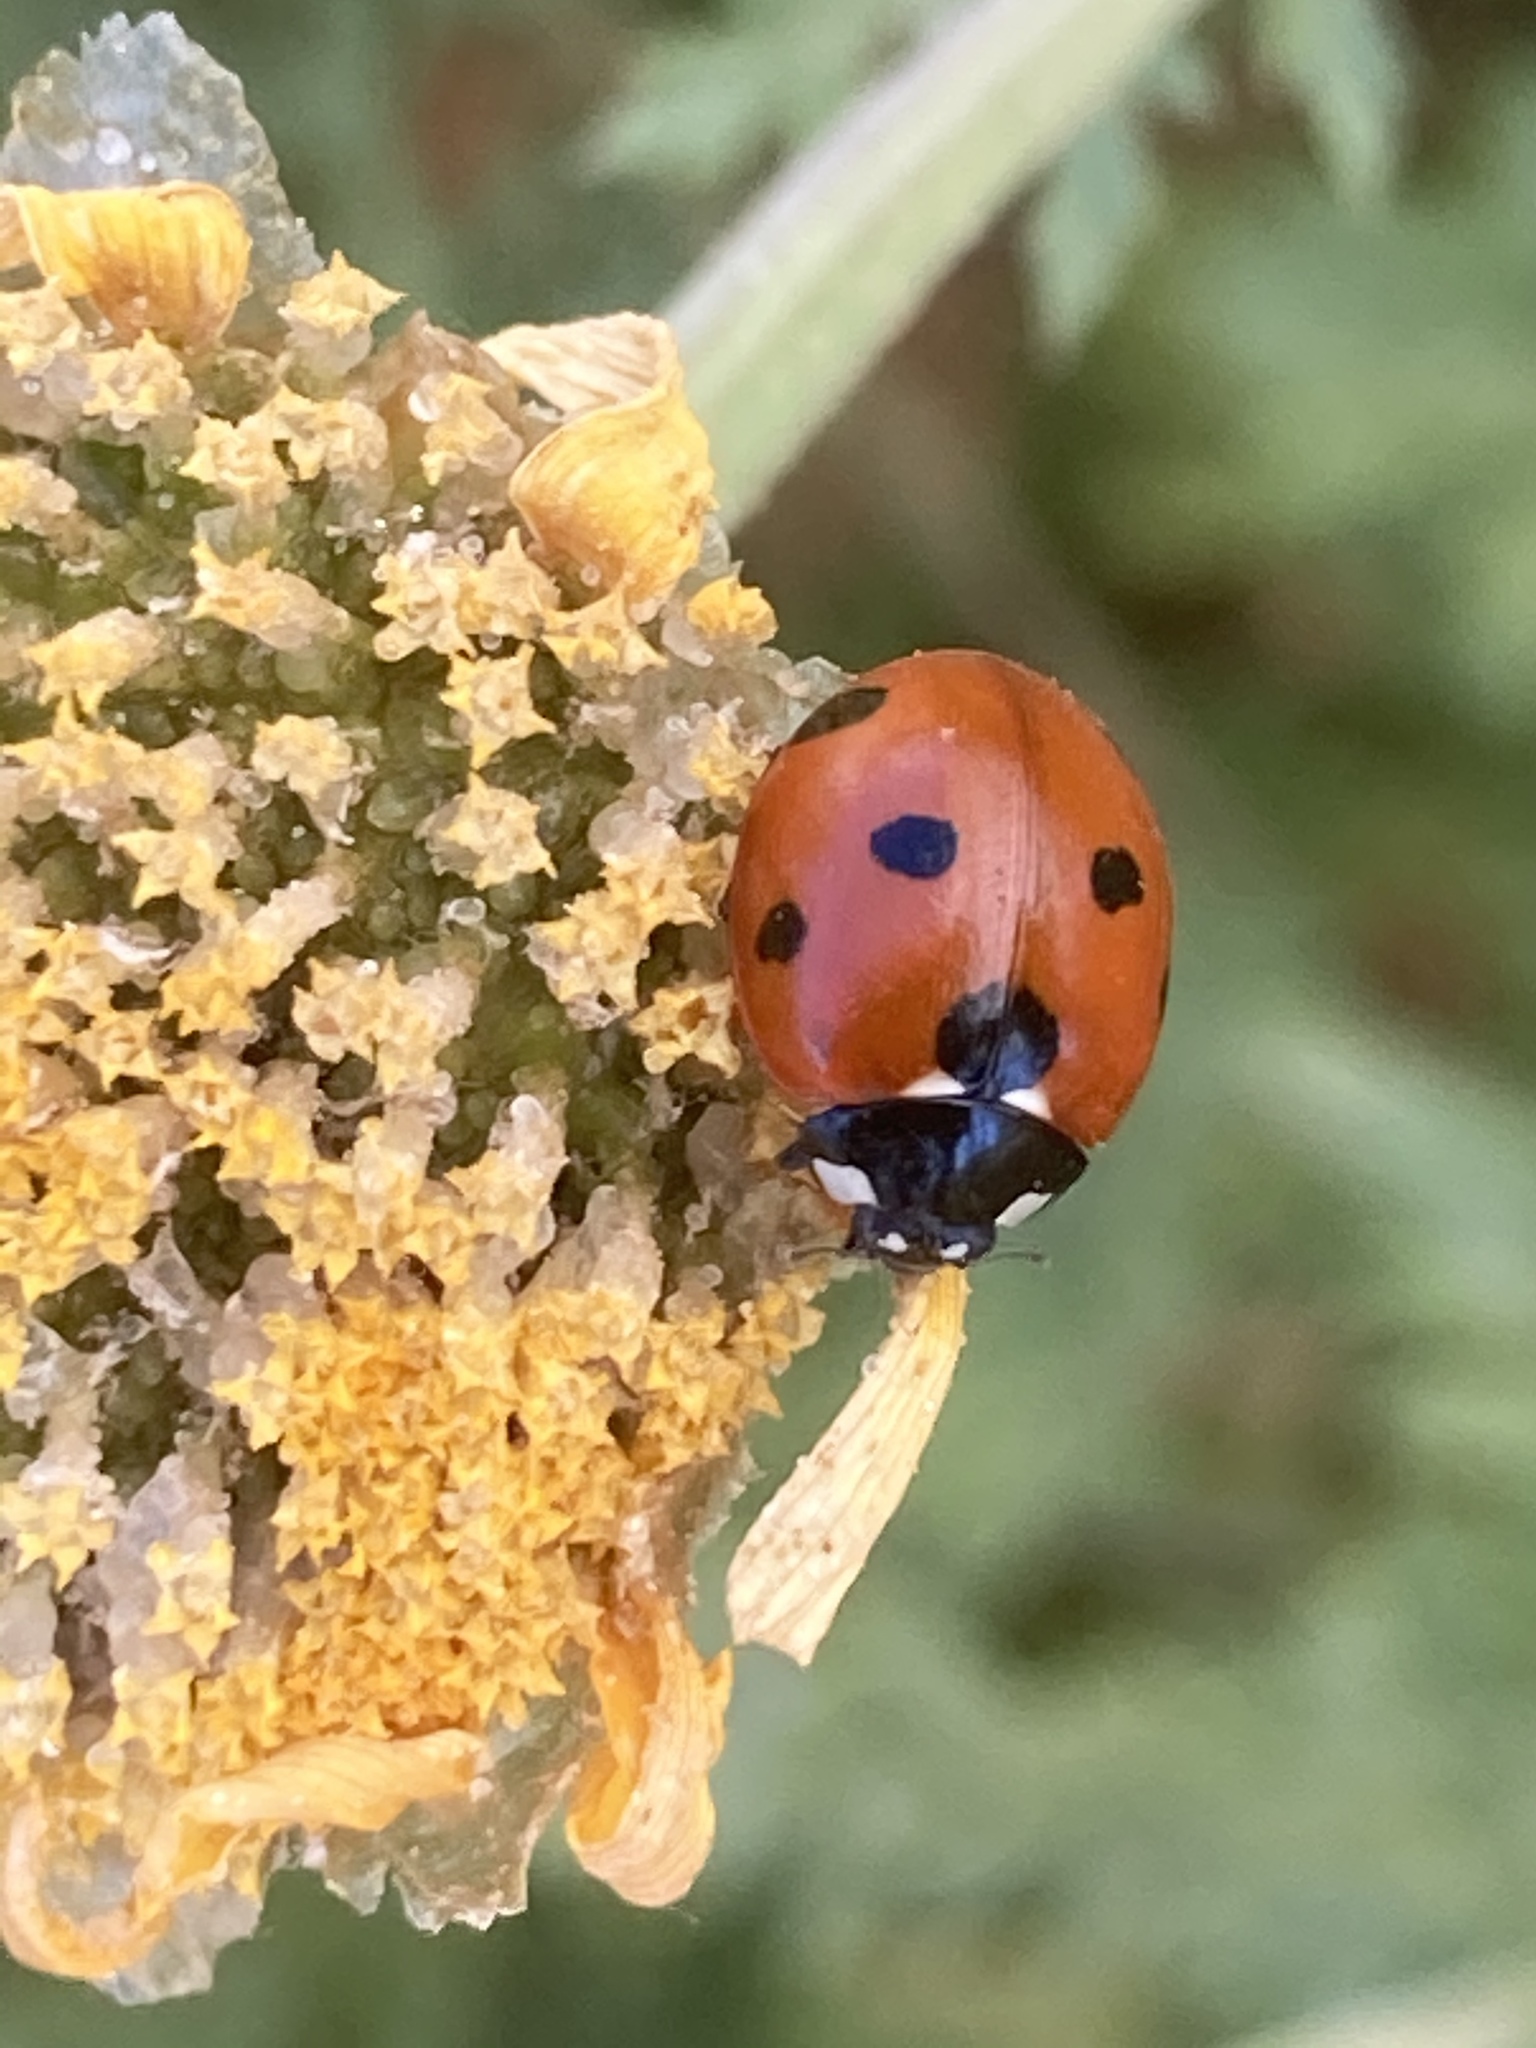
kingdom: Animalia
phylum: Arthropoda
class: Insecta
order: Coleoptera
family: Coccinellidae
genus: Coccinella
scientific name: Coccinella septempunctata
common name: Sevenspotted lady beetle
